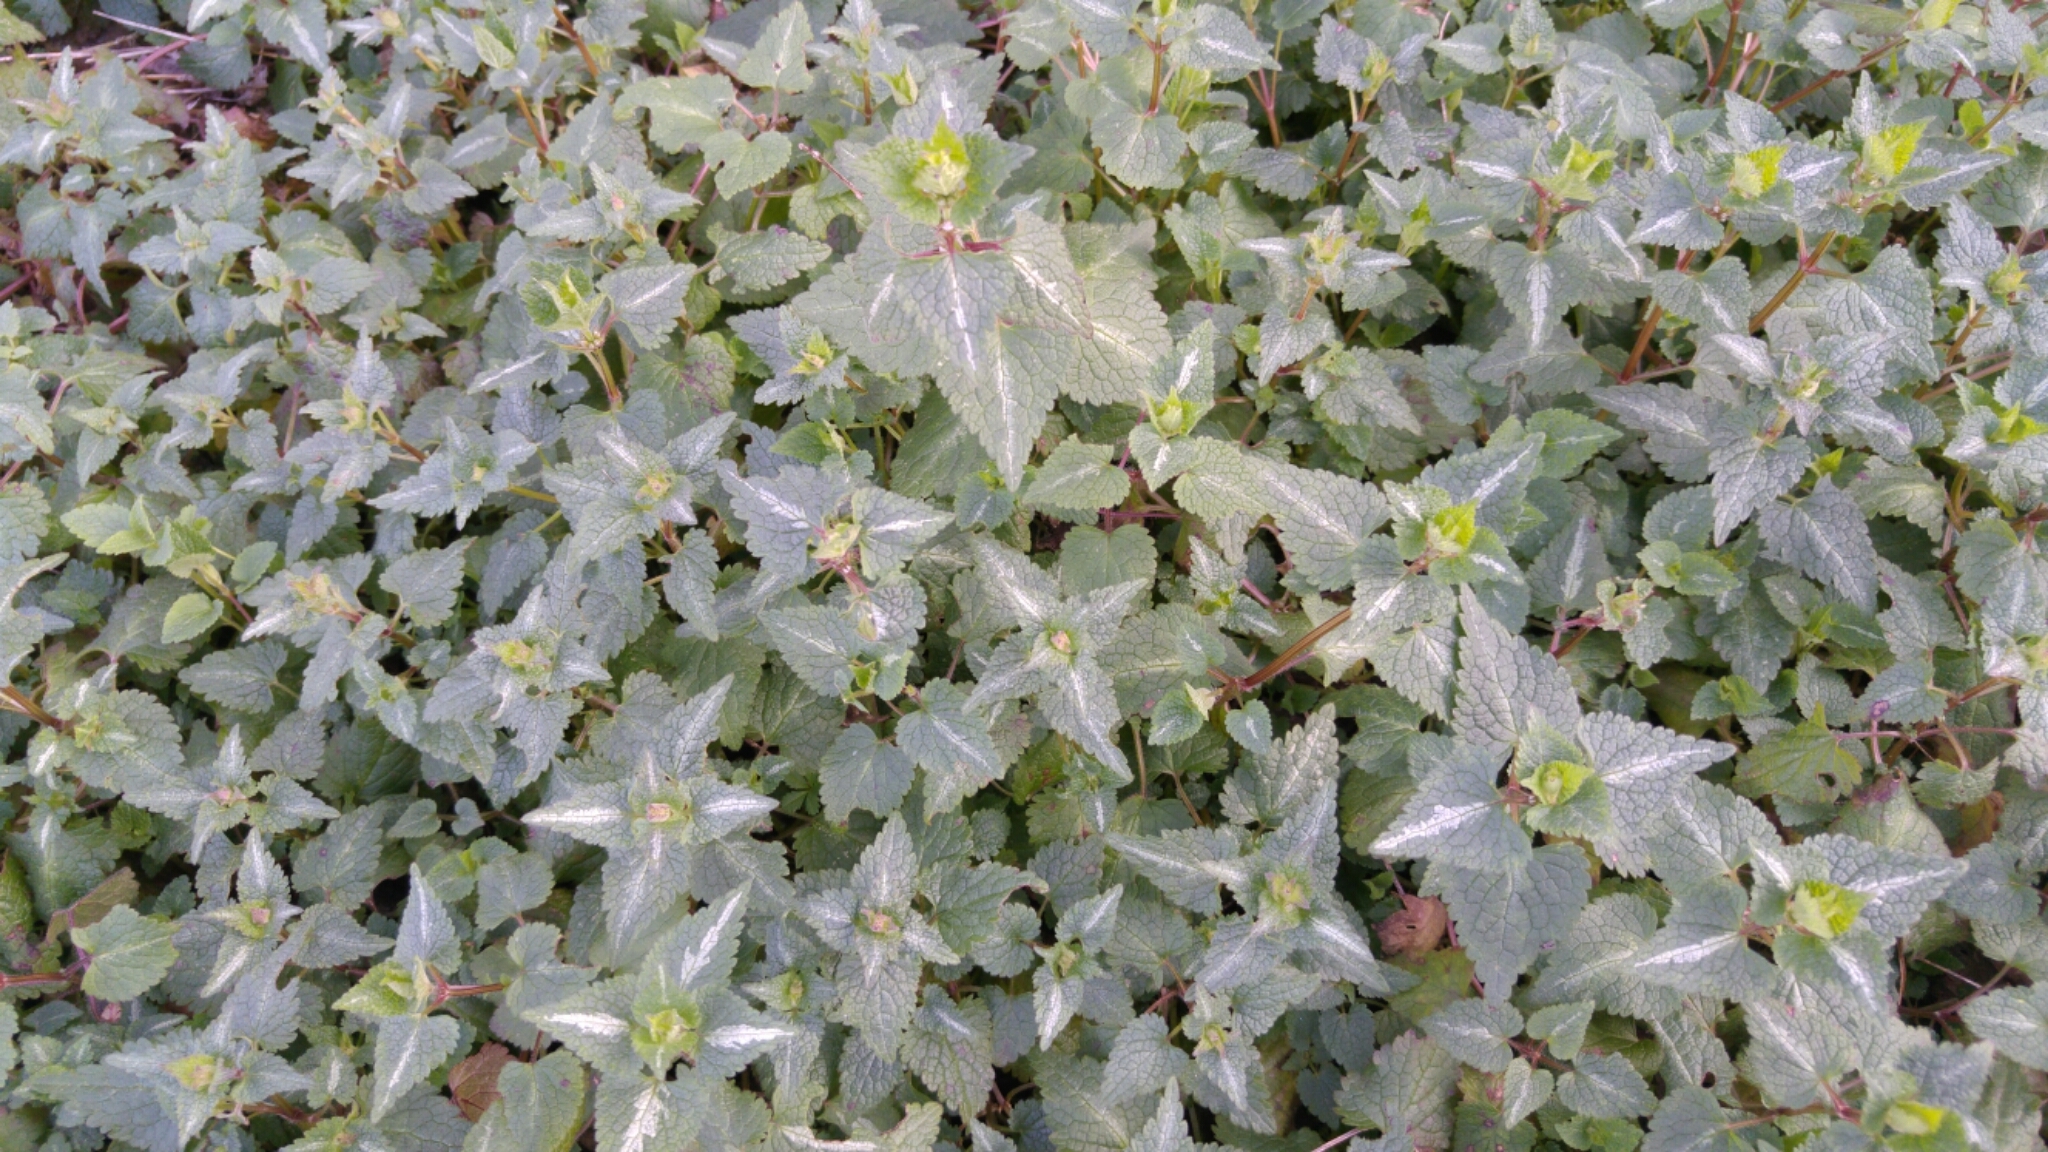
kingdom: Plantae
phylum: Tracheophyta
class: Magnoliopsida
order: Lamiales
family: Lamiaceae
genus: Lamium
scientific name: Lamium maculatum
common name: Spotted dead-nettle
